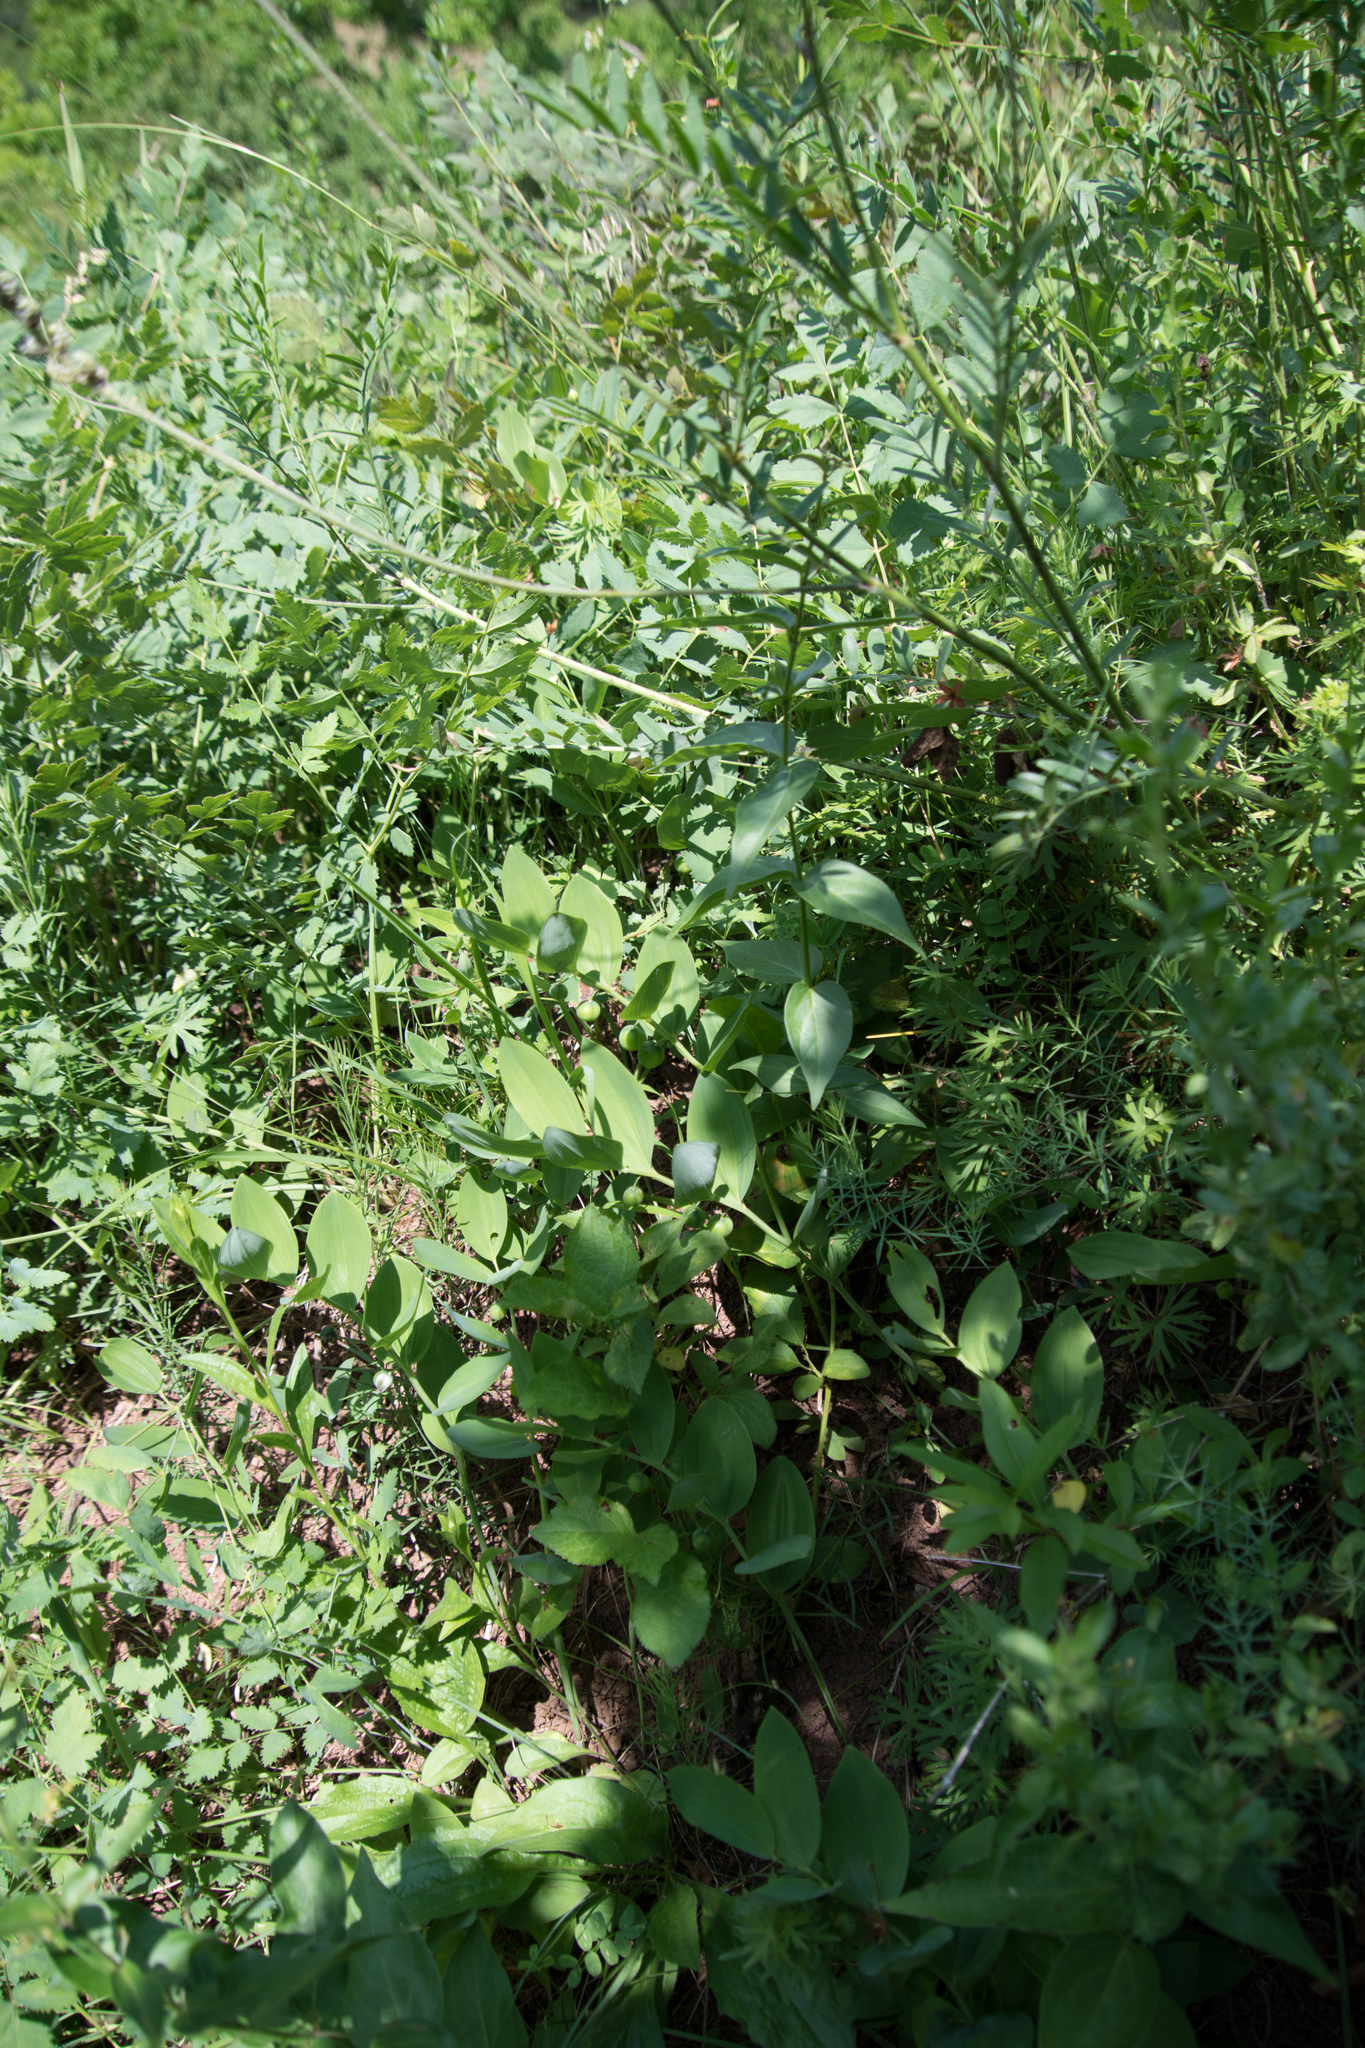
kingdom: Plantae
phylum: Tracheophyta
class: Liliopsida
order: Asparagales
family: Asparagaceae
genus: Polygonatum
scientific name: Polygonatum odoratum
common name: Angular solomon's-seal
